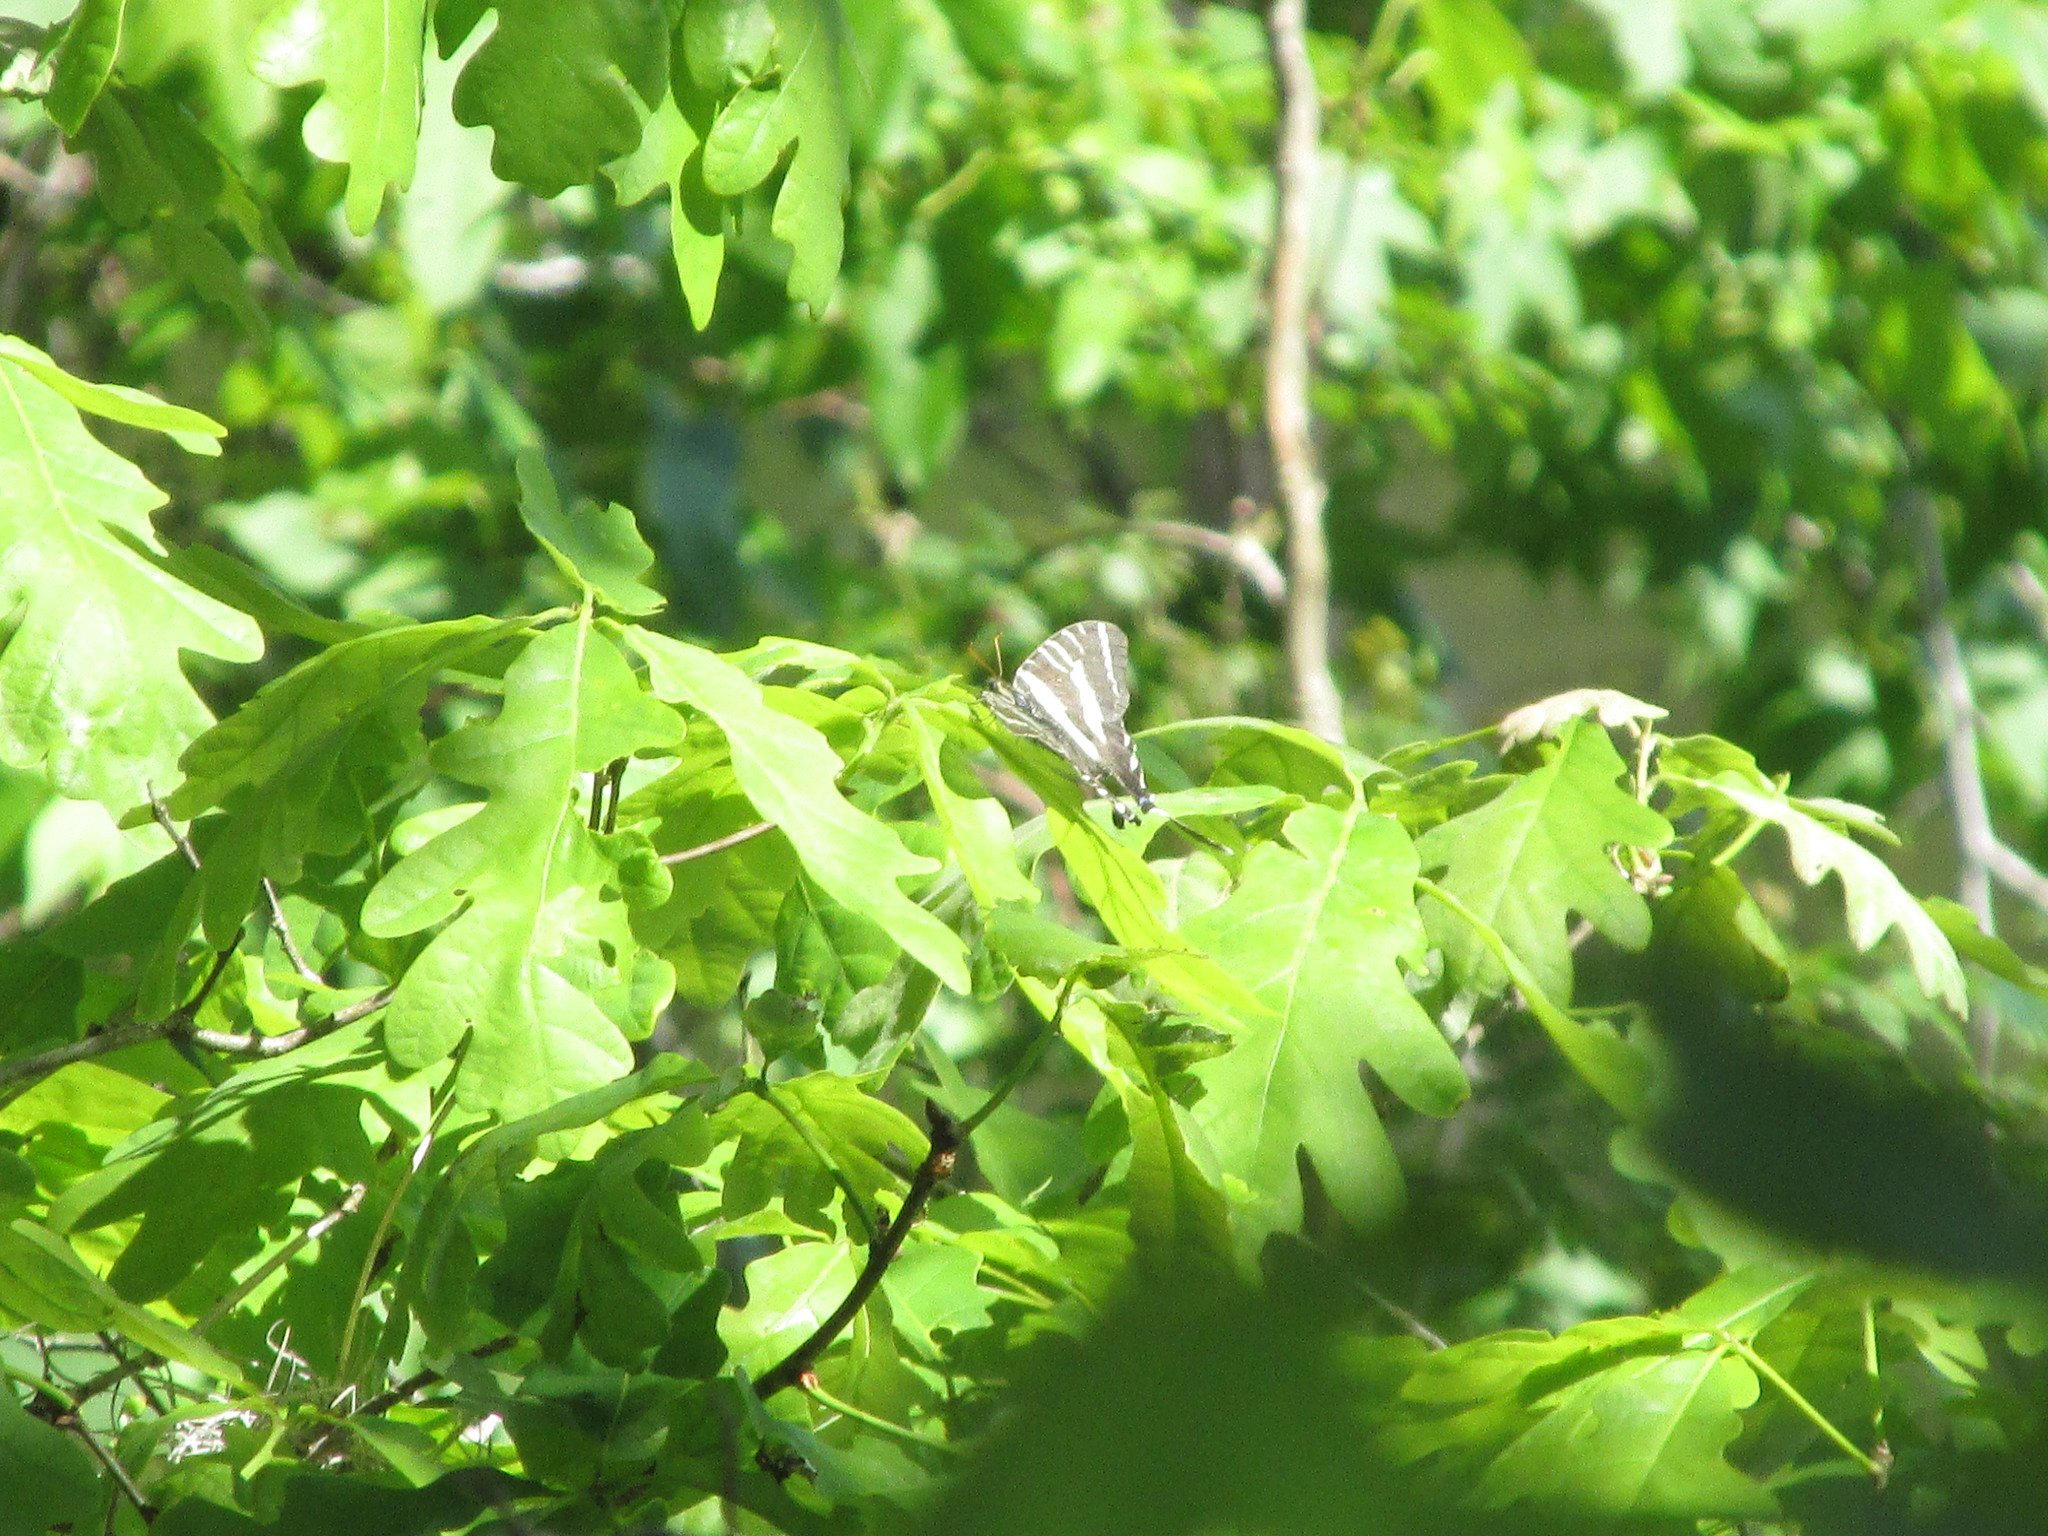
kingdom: Animalia
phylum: Arthropoda
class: Insecta
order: Lepidoptera
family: Papilionidae
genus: Protographium
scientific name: Protographium marcellus
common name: Zebra swallowtail
